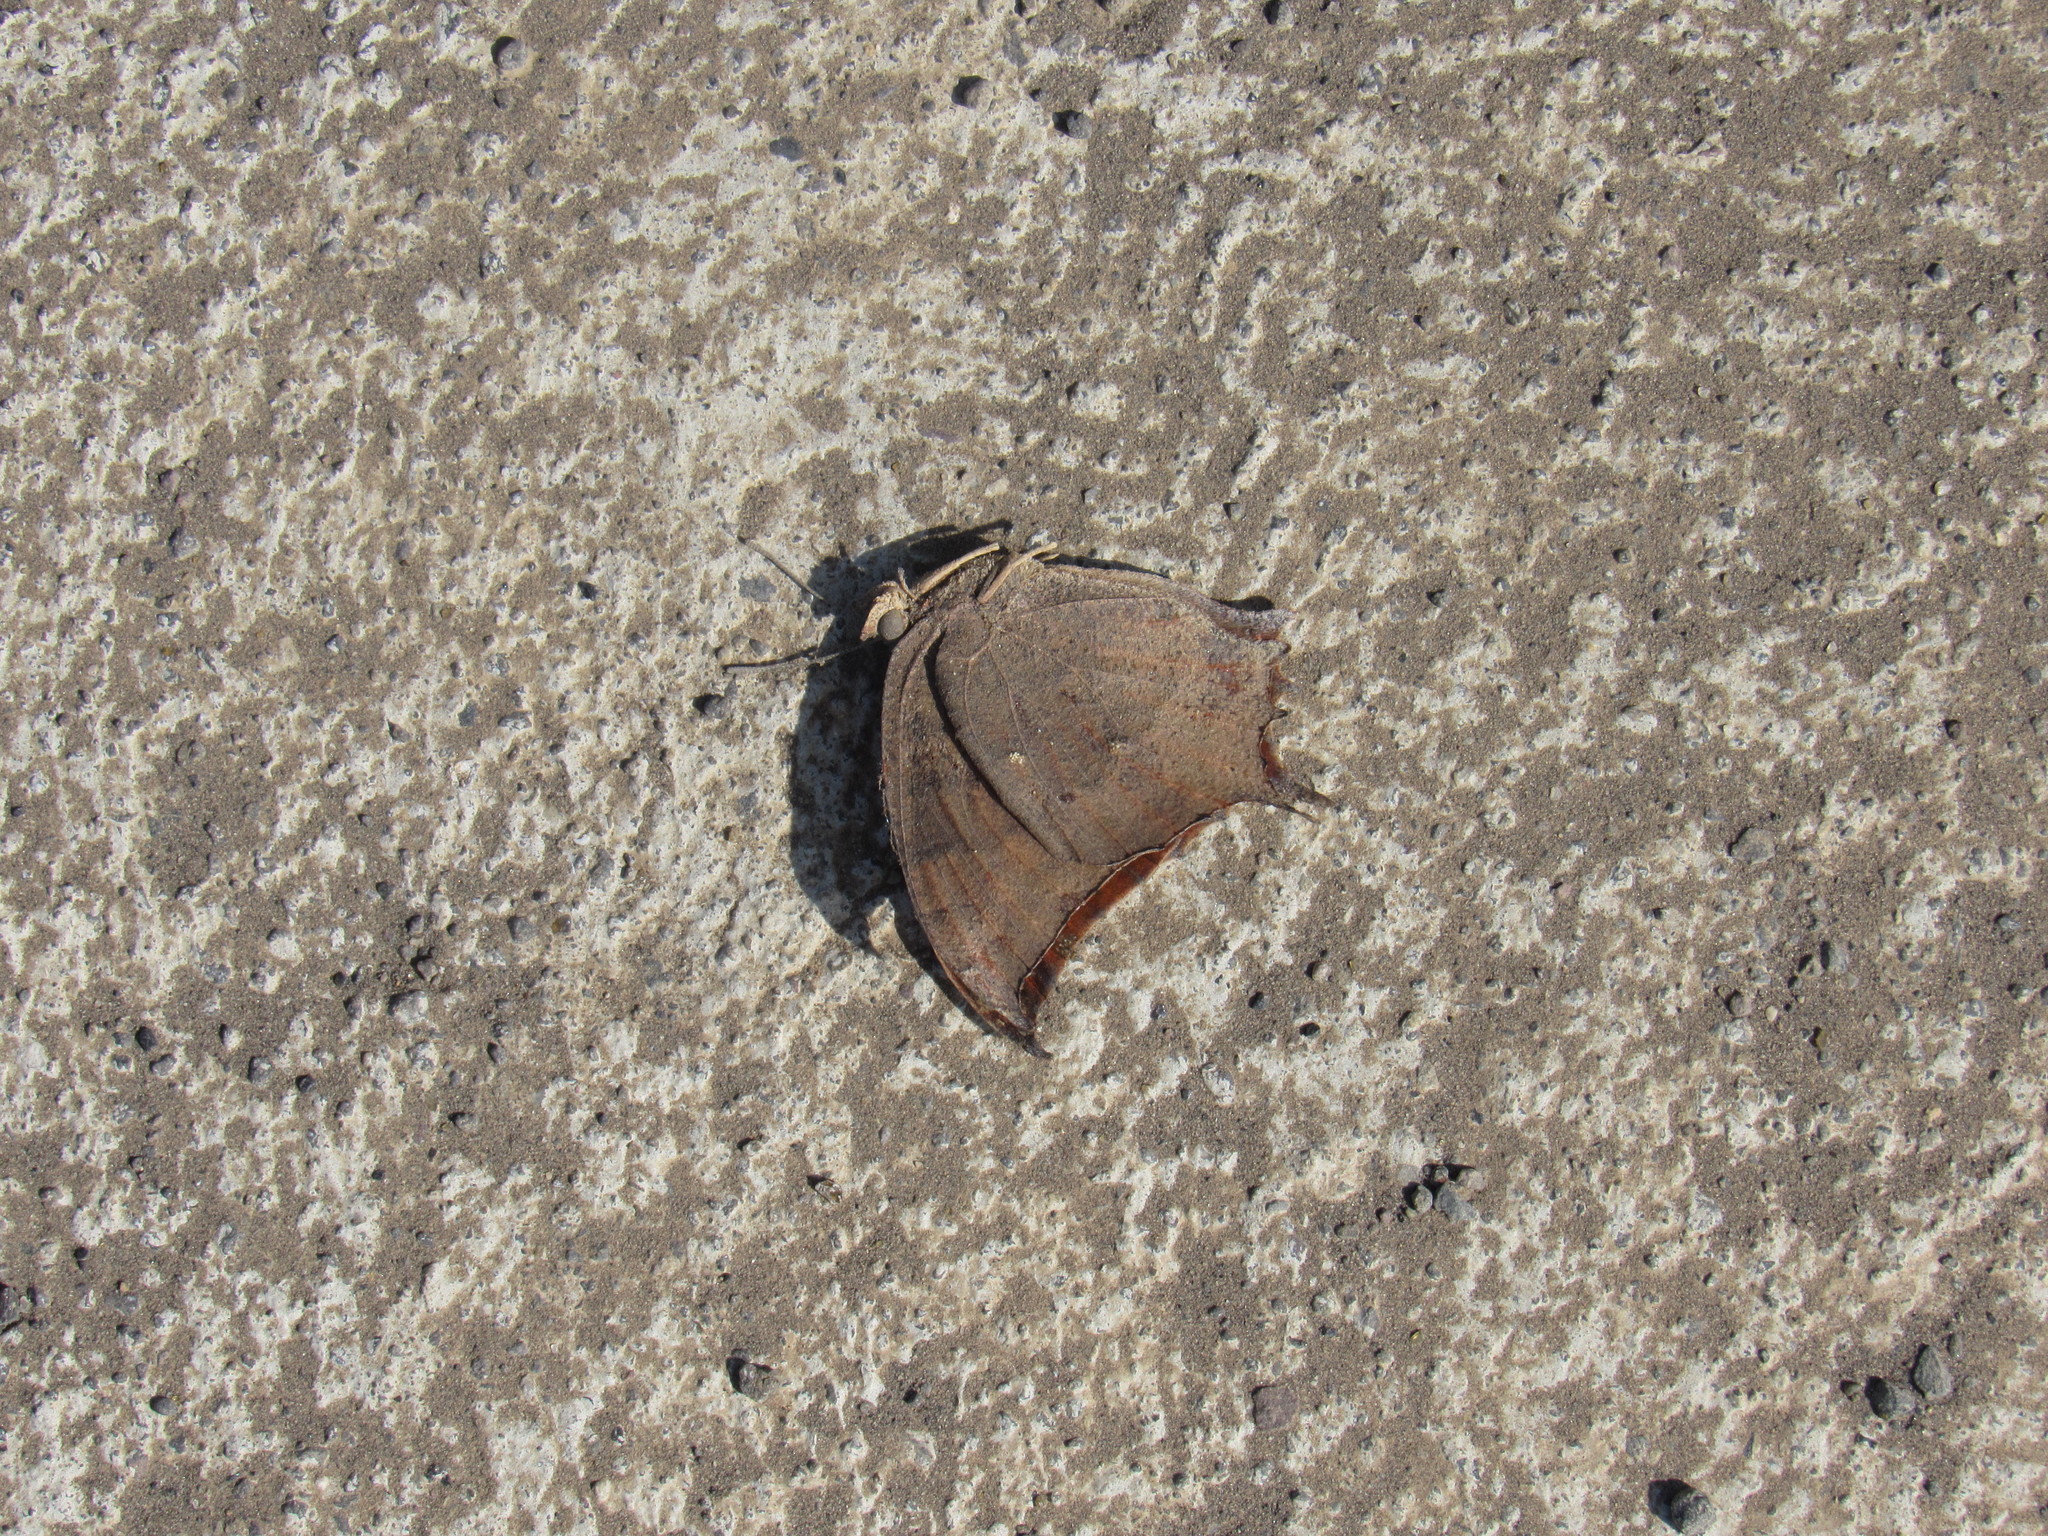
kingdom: Animalia
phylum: Arthropoda
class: Insecta
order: Lepidoptera
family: Nymphalidae
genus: Anaea
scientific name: Anaea aidea
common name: Tropical leafwing
